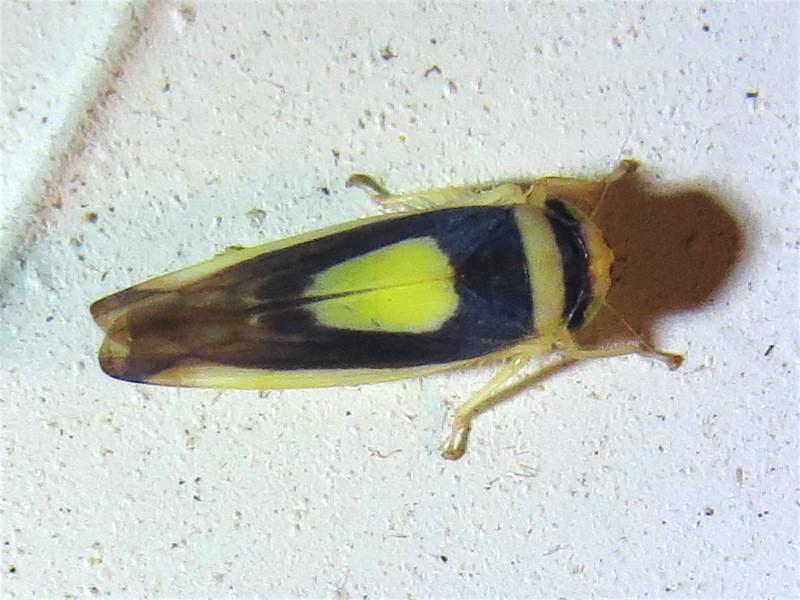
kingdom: Animalia
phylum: Arthropoda
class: Insecta
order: Hemiptera
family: Cicadellidae
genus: Colladonus
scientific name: Colladonus clitellarius
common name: The saddleback leafhopper
